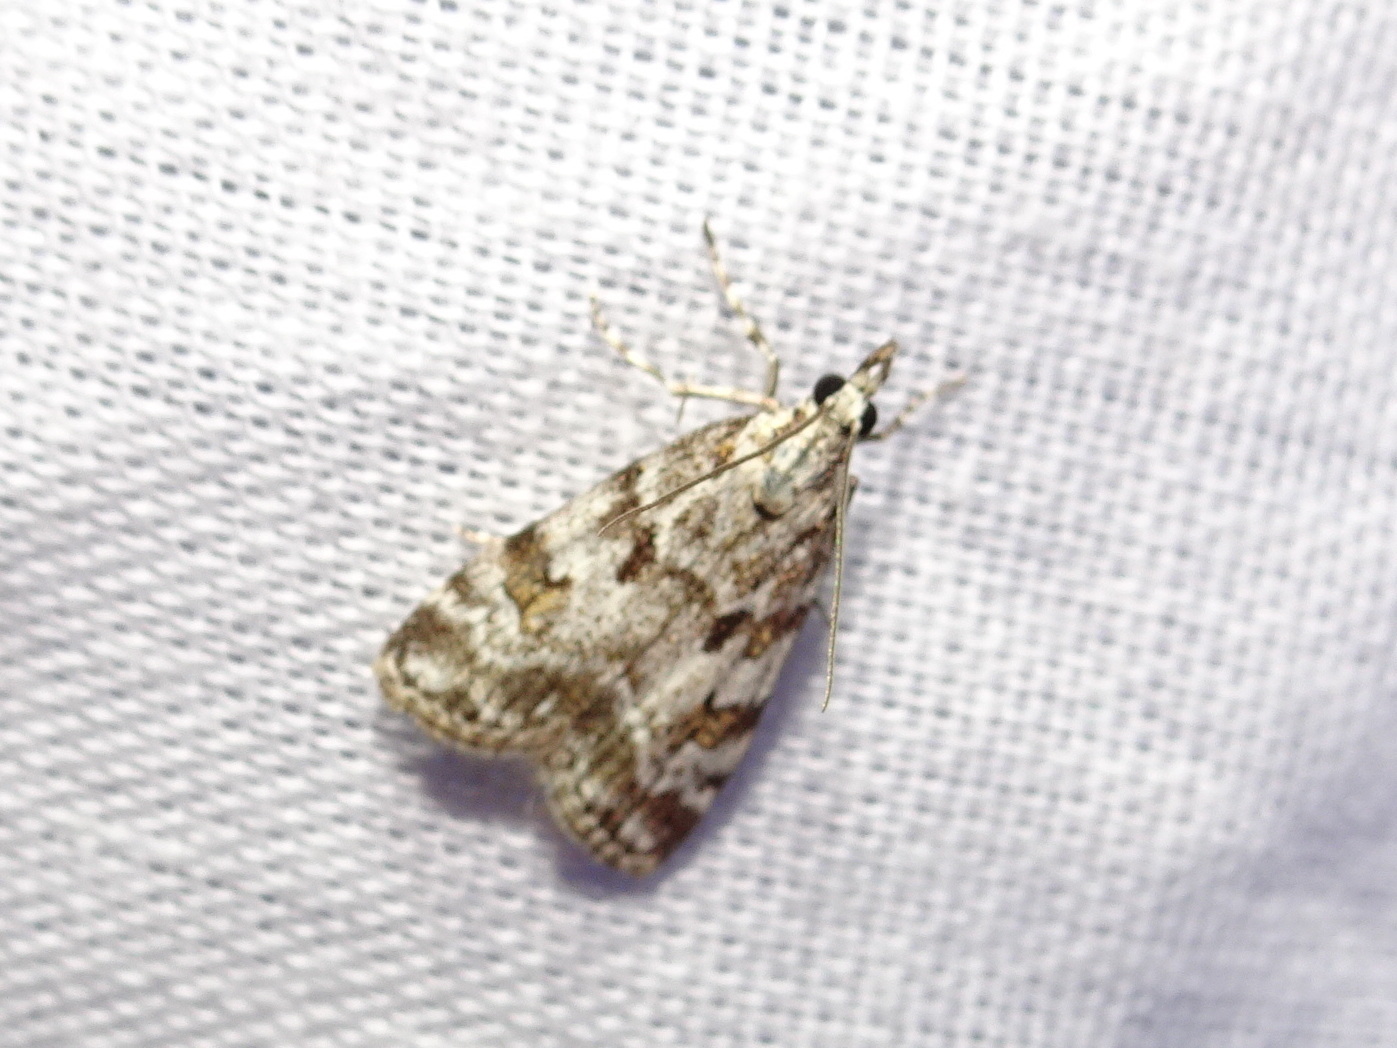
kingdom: Animalia
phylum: Arthropoda
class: Insecta
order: Lepidoptera
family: Crambidae
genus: Scoparia
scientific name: Scoparia pyralella
